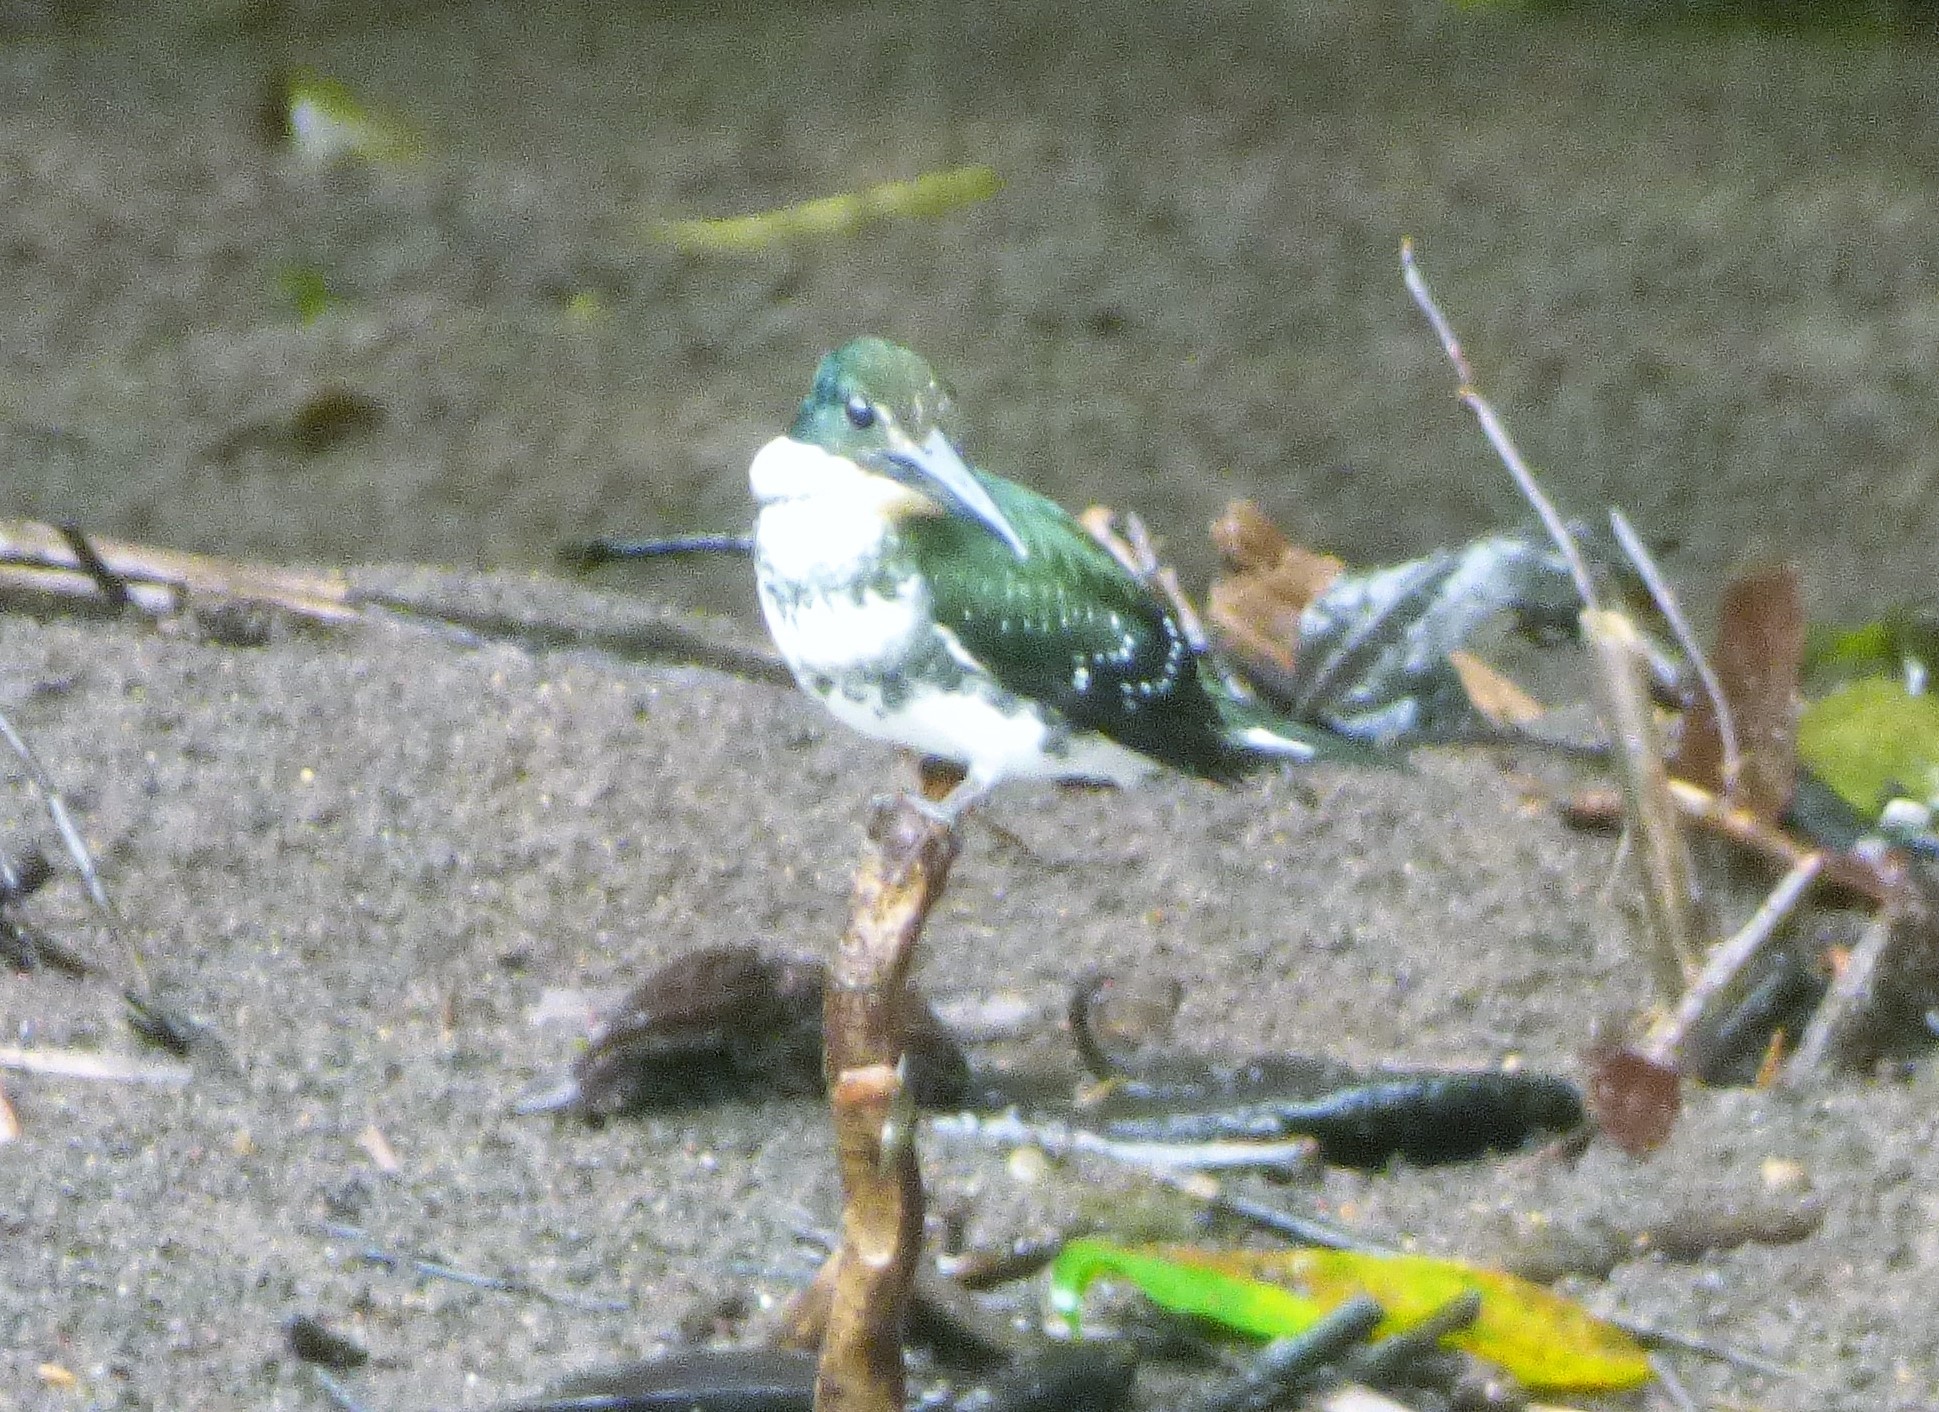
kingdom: Animalia
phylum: Chordata
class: Aves
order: Coraciiformes
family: Alcedinidae
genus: Chloroceryle
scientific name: Chloroceryle americana
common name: Green kingfisher
